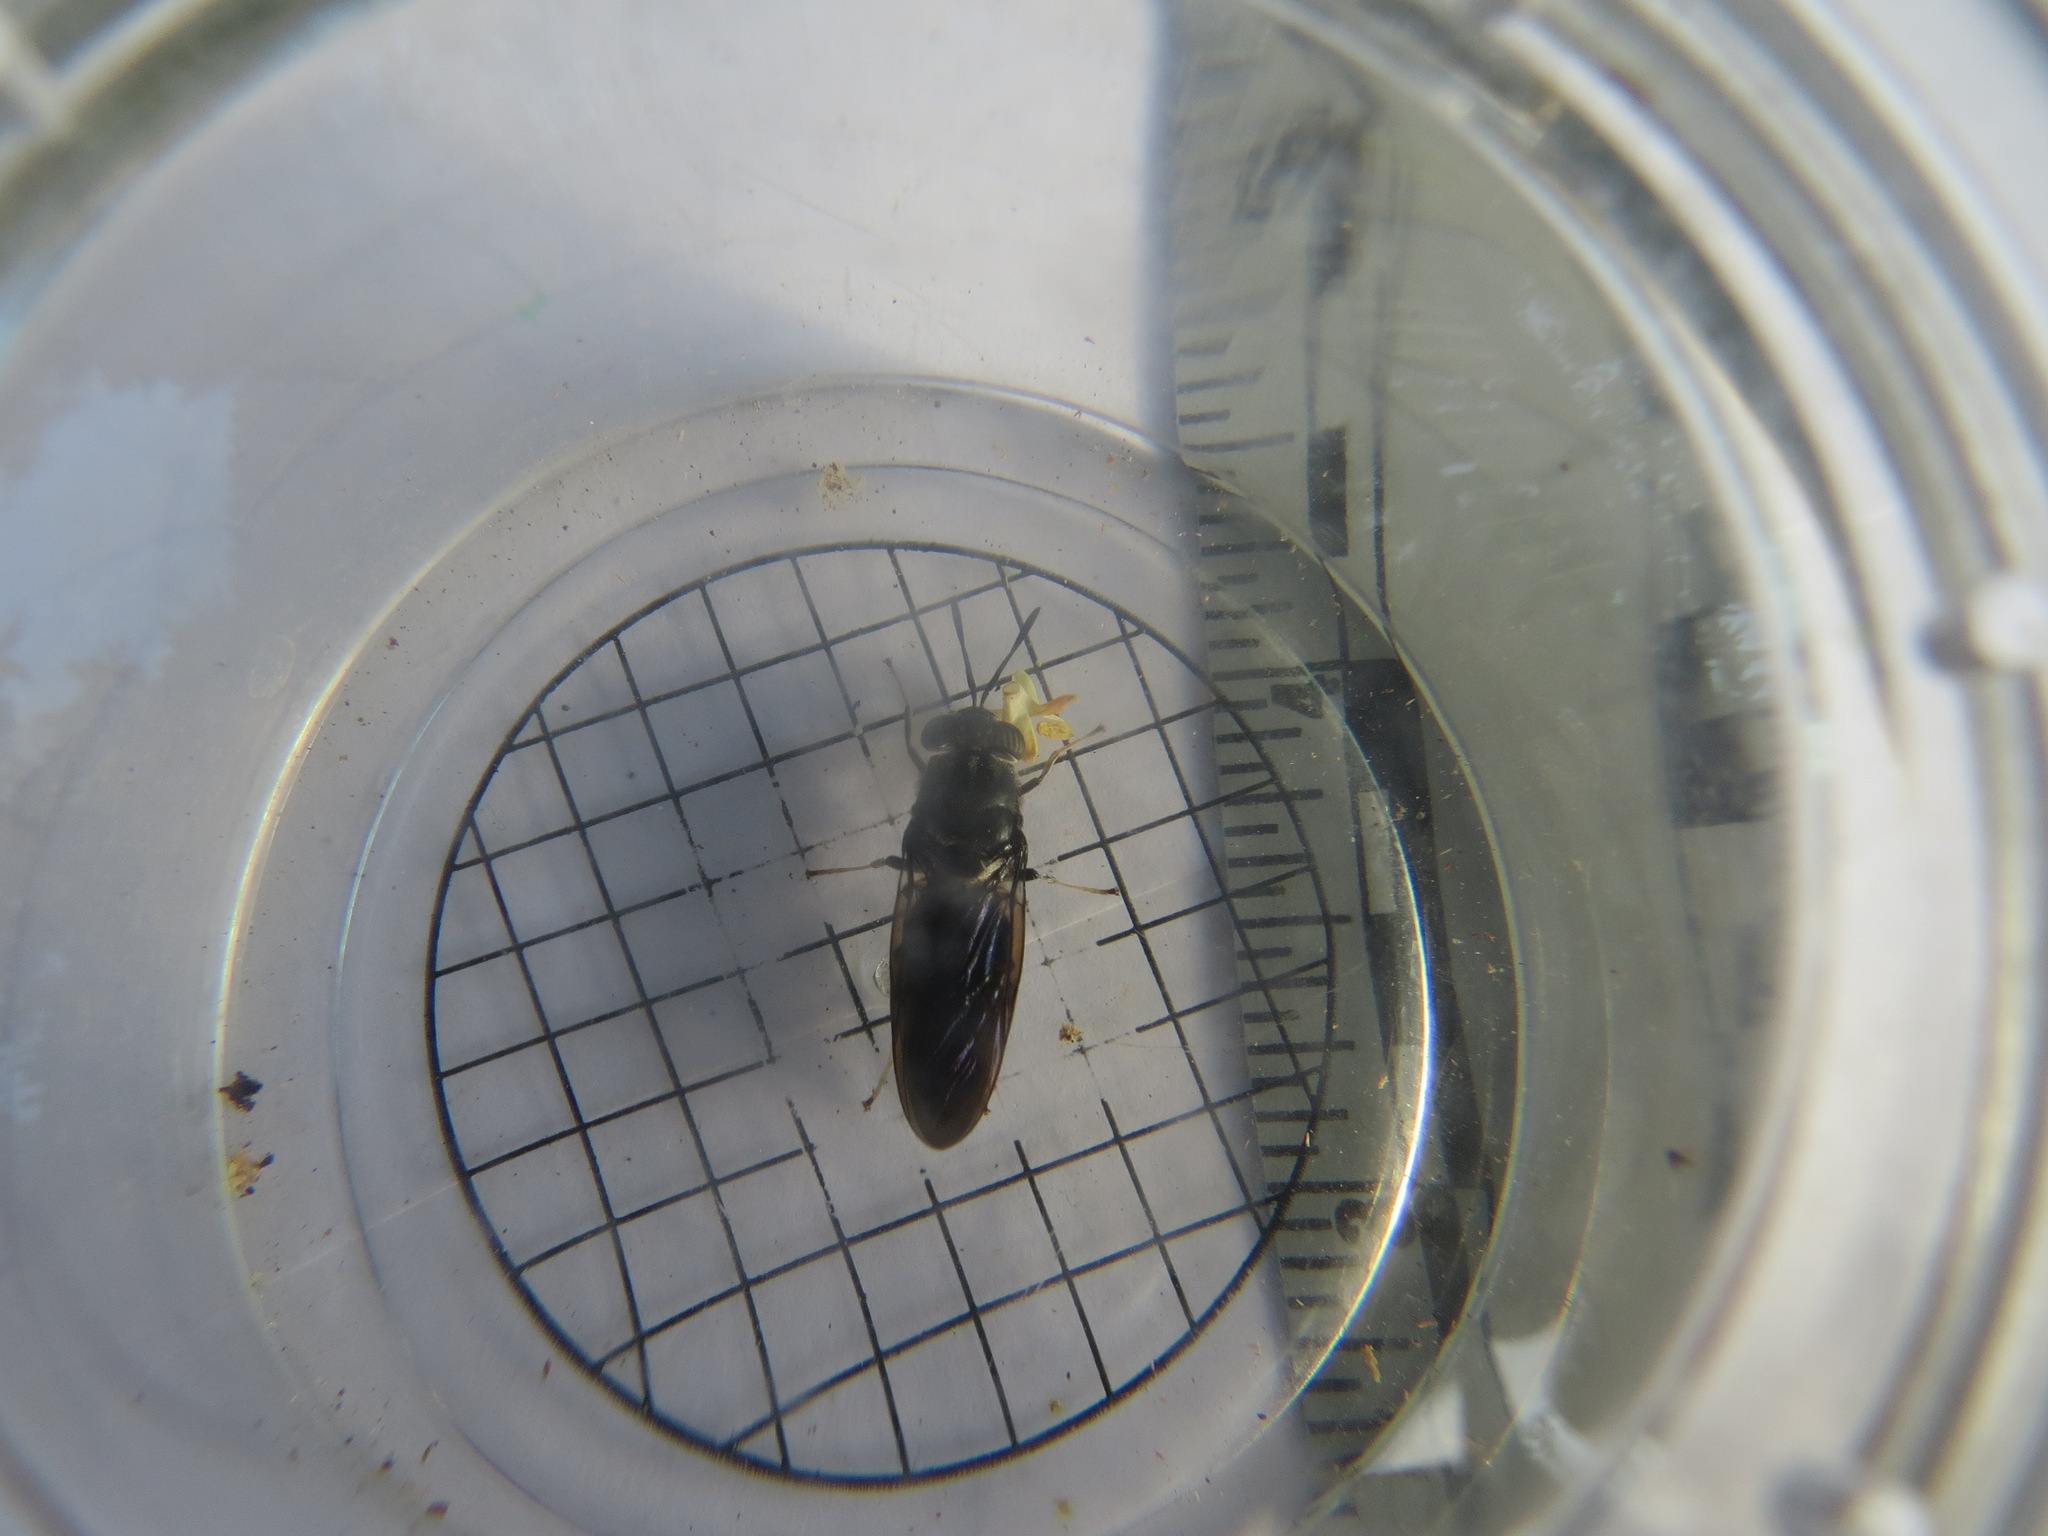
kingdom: Animalia
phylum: Arthropoda
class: Insecta
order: Diptera
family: Stratiomyidae
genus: Hermetia
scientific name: Hermetia illucens
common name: Black soldier fly
